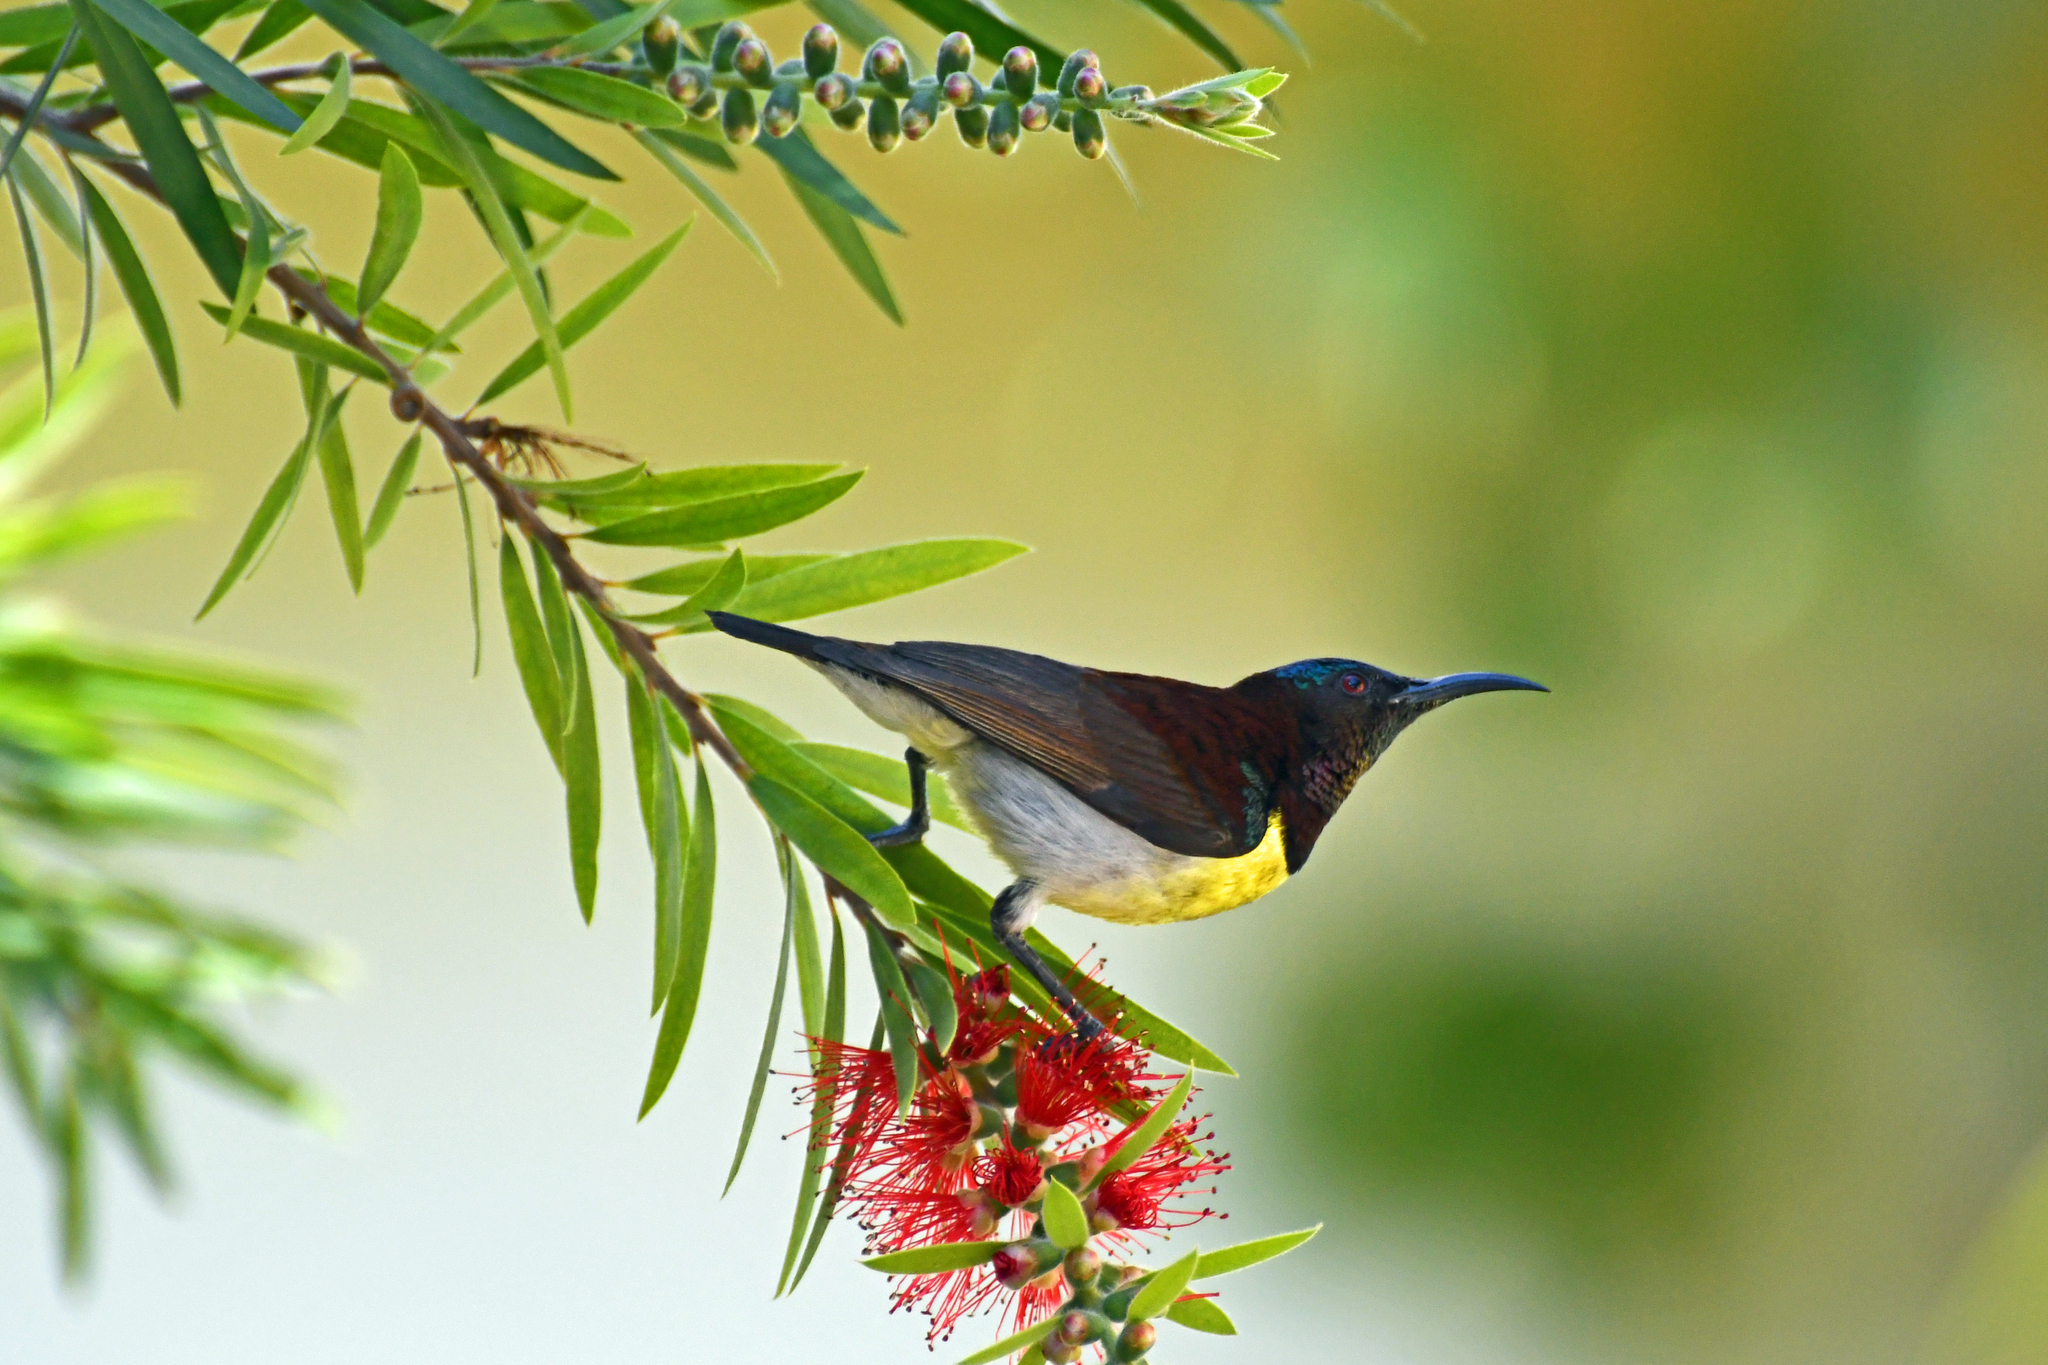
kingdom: Animalia
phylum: Chordata
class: Aves
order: Passeriformes
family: Nectariniidae
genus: Leptocoma
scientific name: Leptocoma zeylonica
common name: Purple-rumped sunbird
